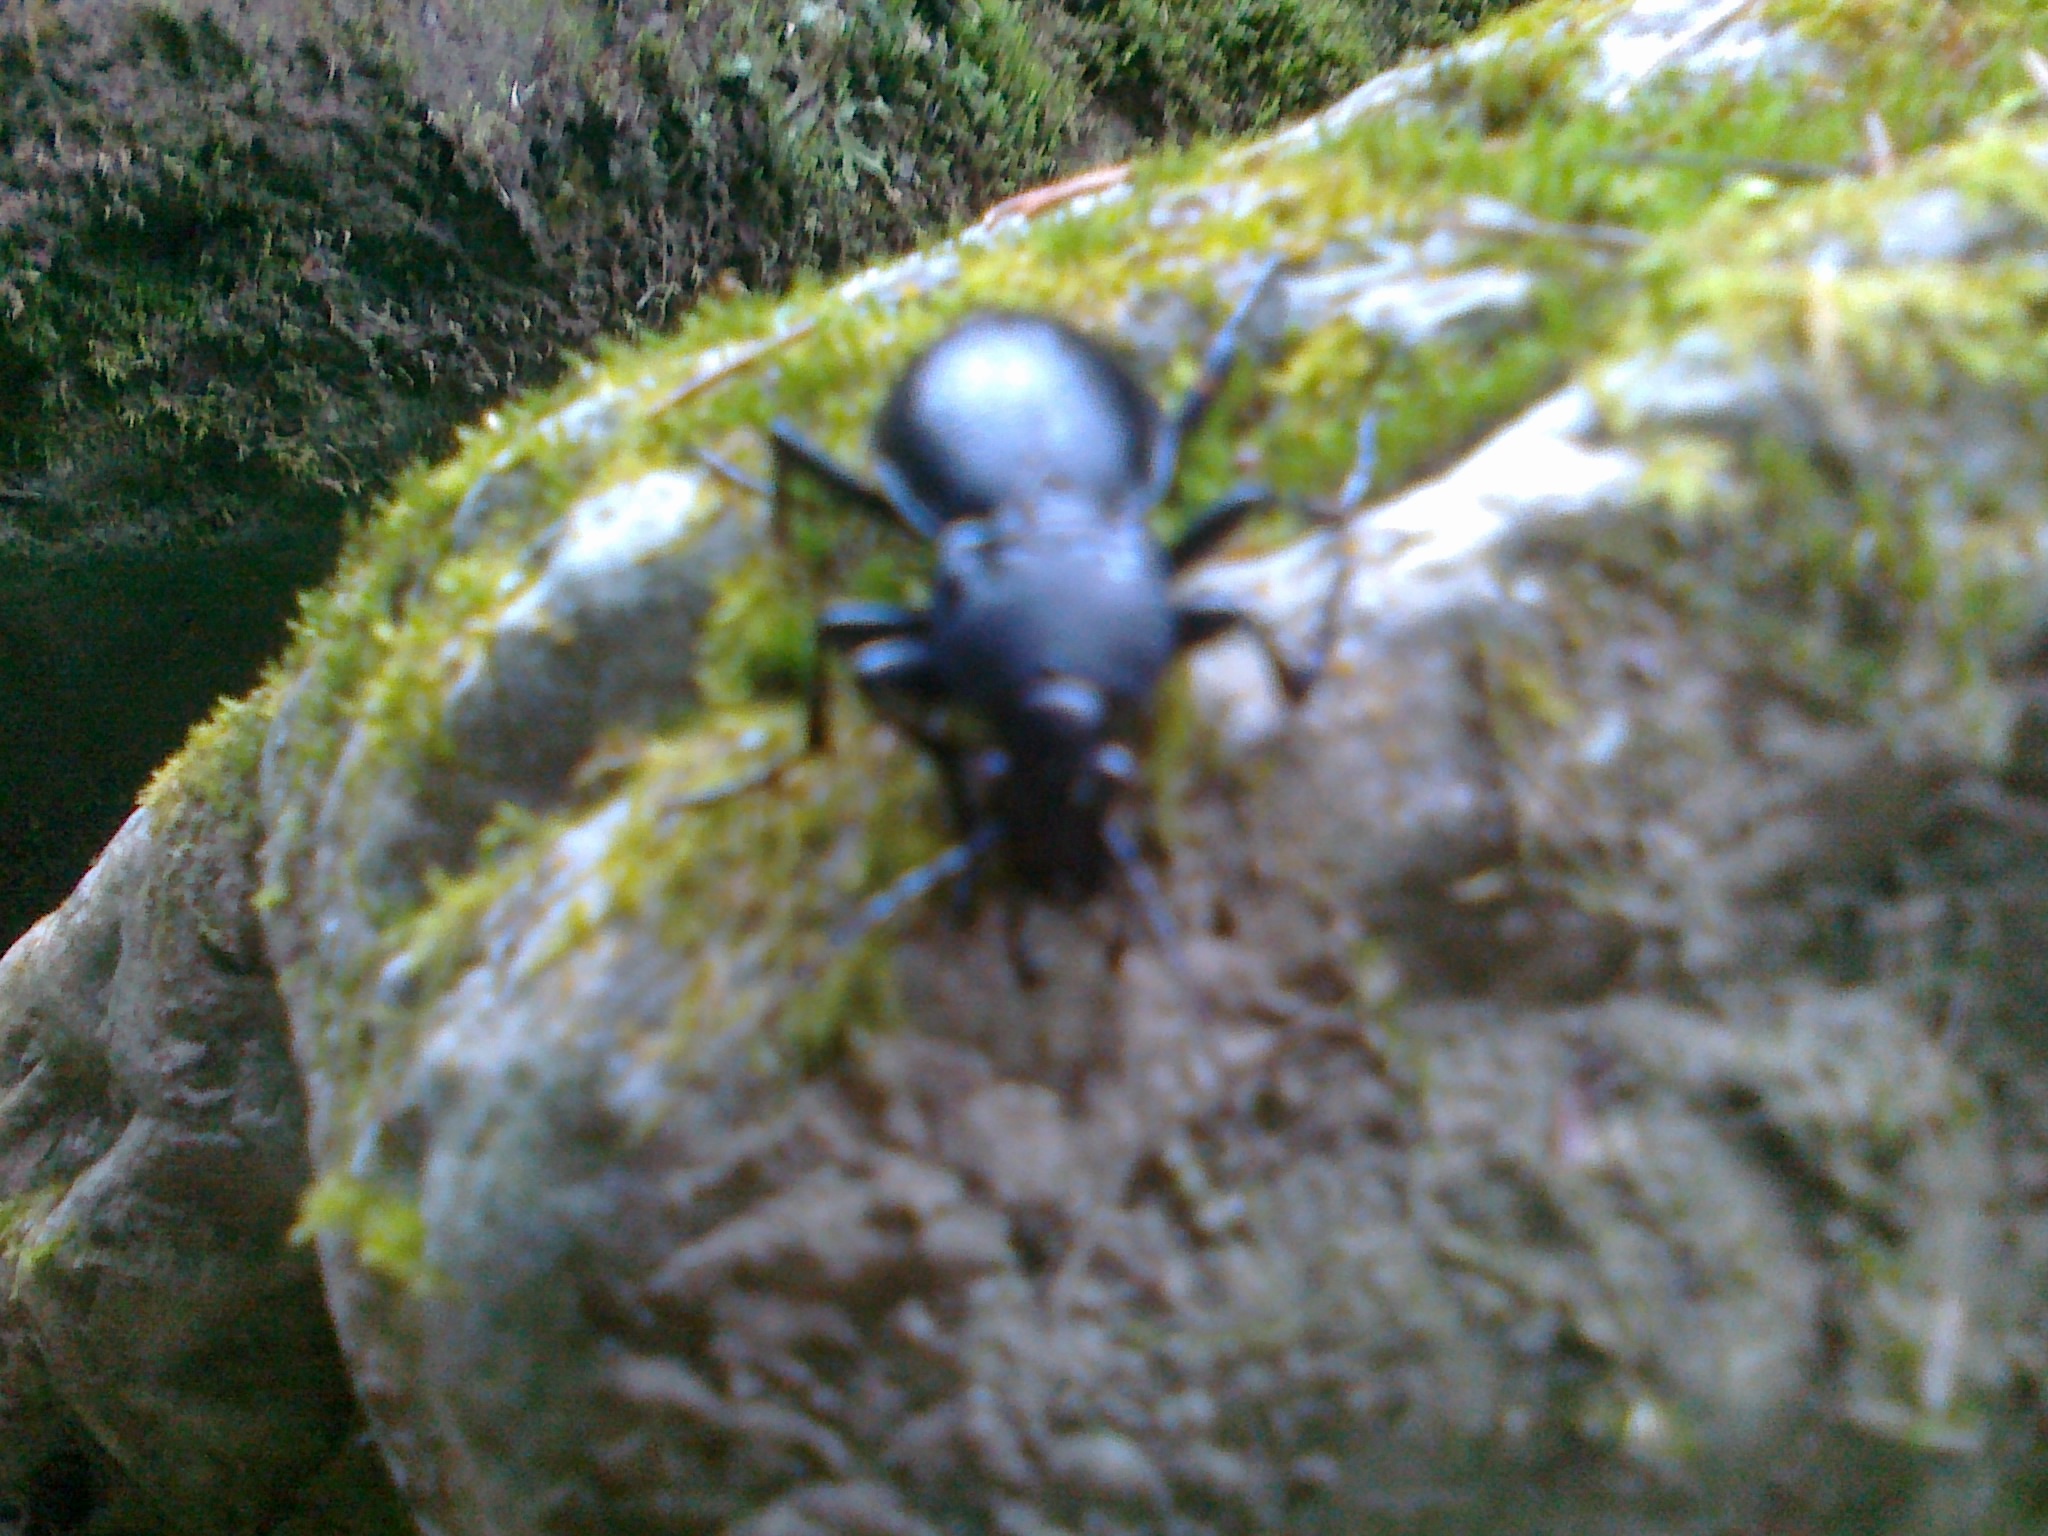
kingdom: Animalia
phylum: Arthropoda
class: Insecta
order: Coleoptera
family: Carabidae
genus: Carabus
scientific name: Carabus glabratus
